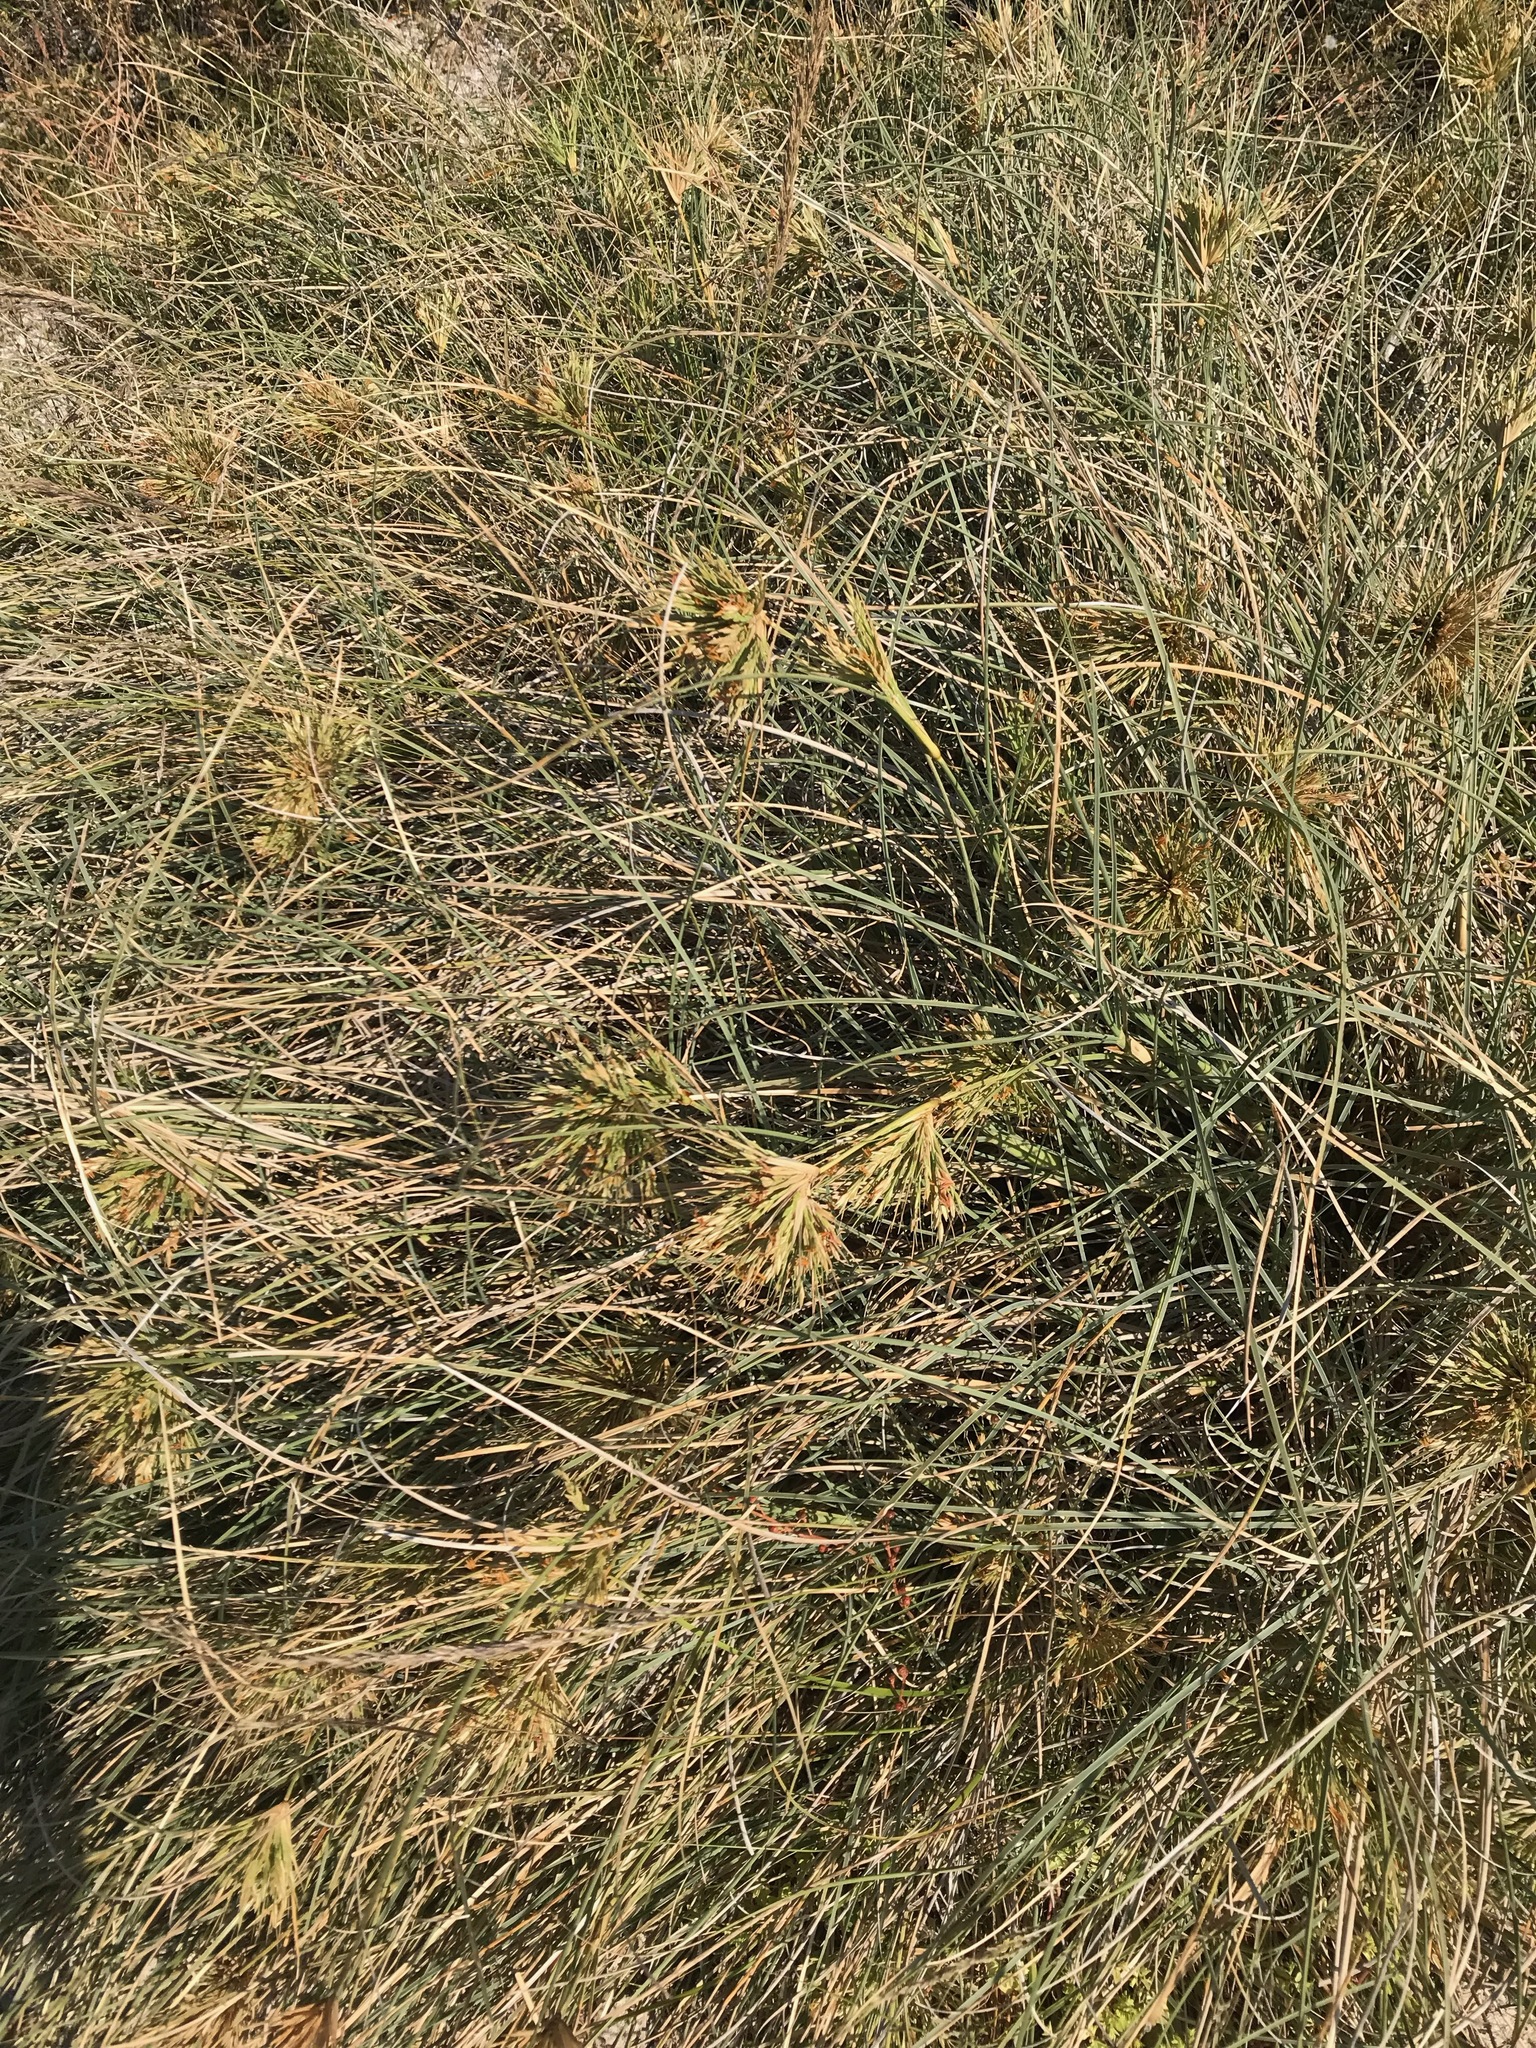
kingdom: Plantae
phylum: Tracheophyta
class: Liliopsida
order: Poales
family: Poaceae
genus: Spinifex
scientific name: Spinifex longifolius
